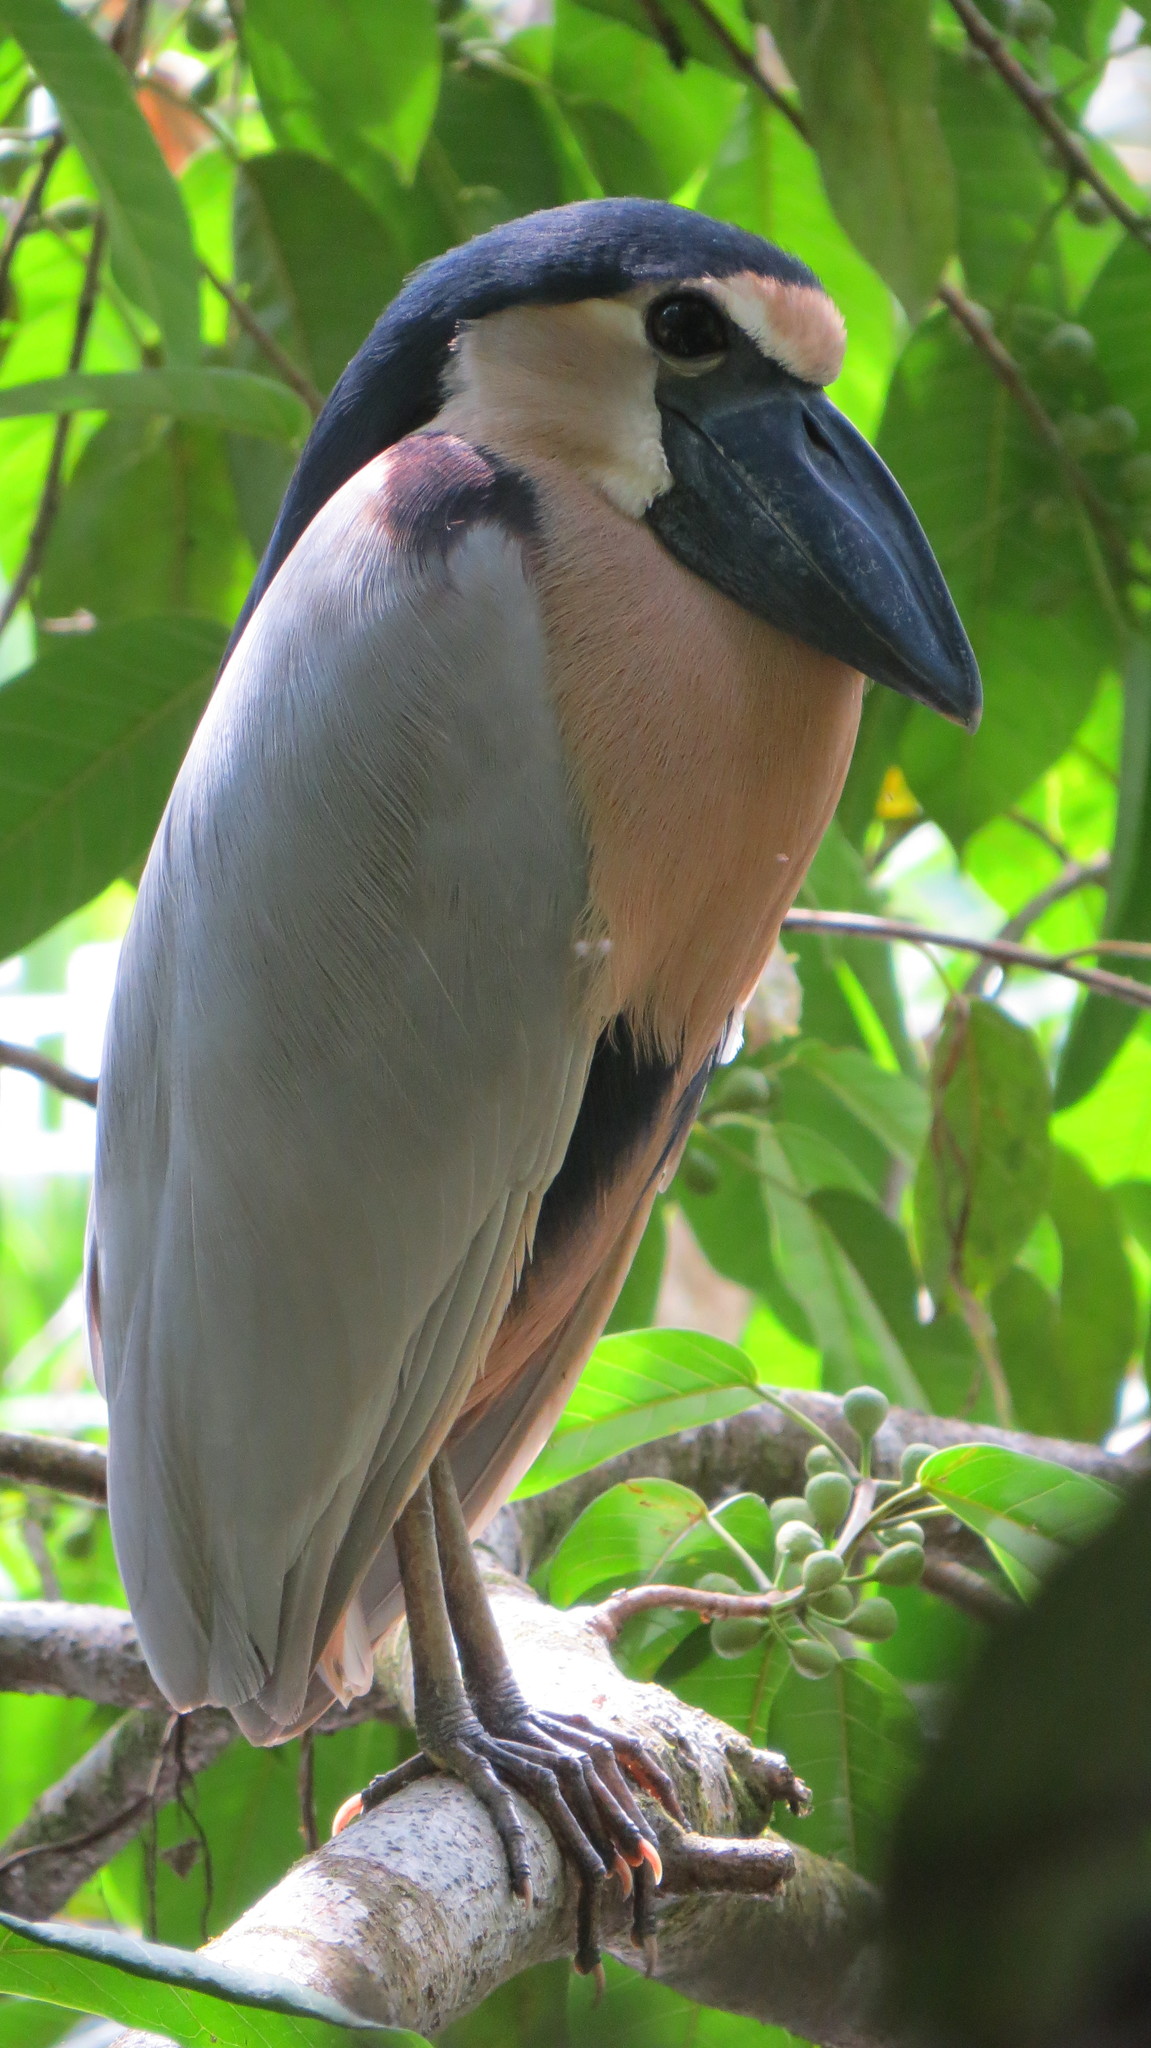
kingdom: Animalia
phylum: Chordata
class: Aves
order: Pelecaniformes
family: Ardeidae
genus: Cochlearius
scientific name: Cochlearius cochlearius
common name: Boat-billed heron
